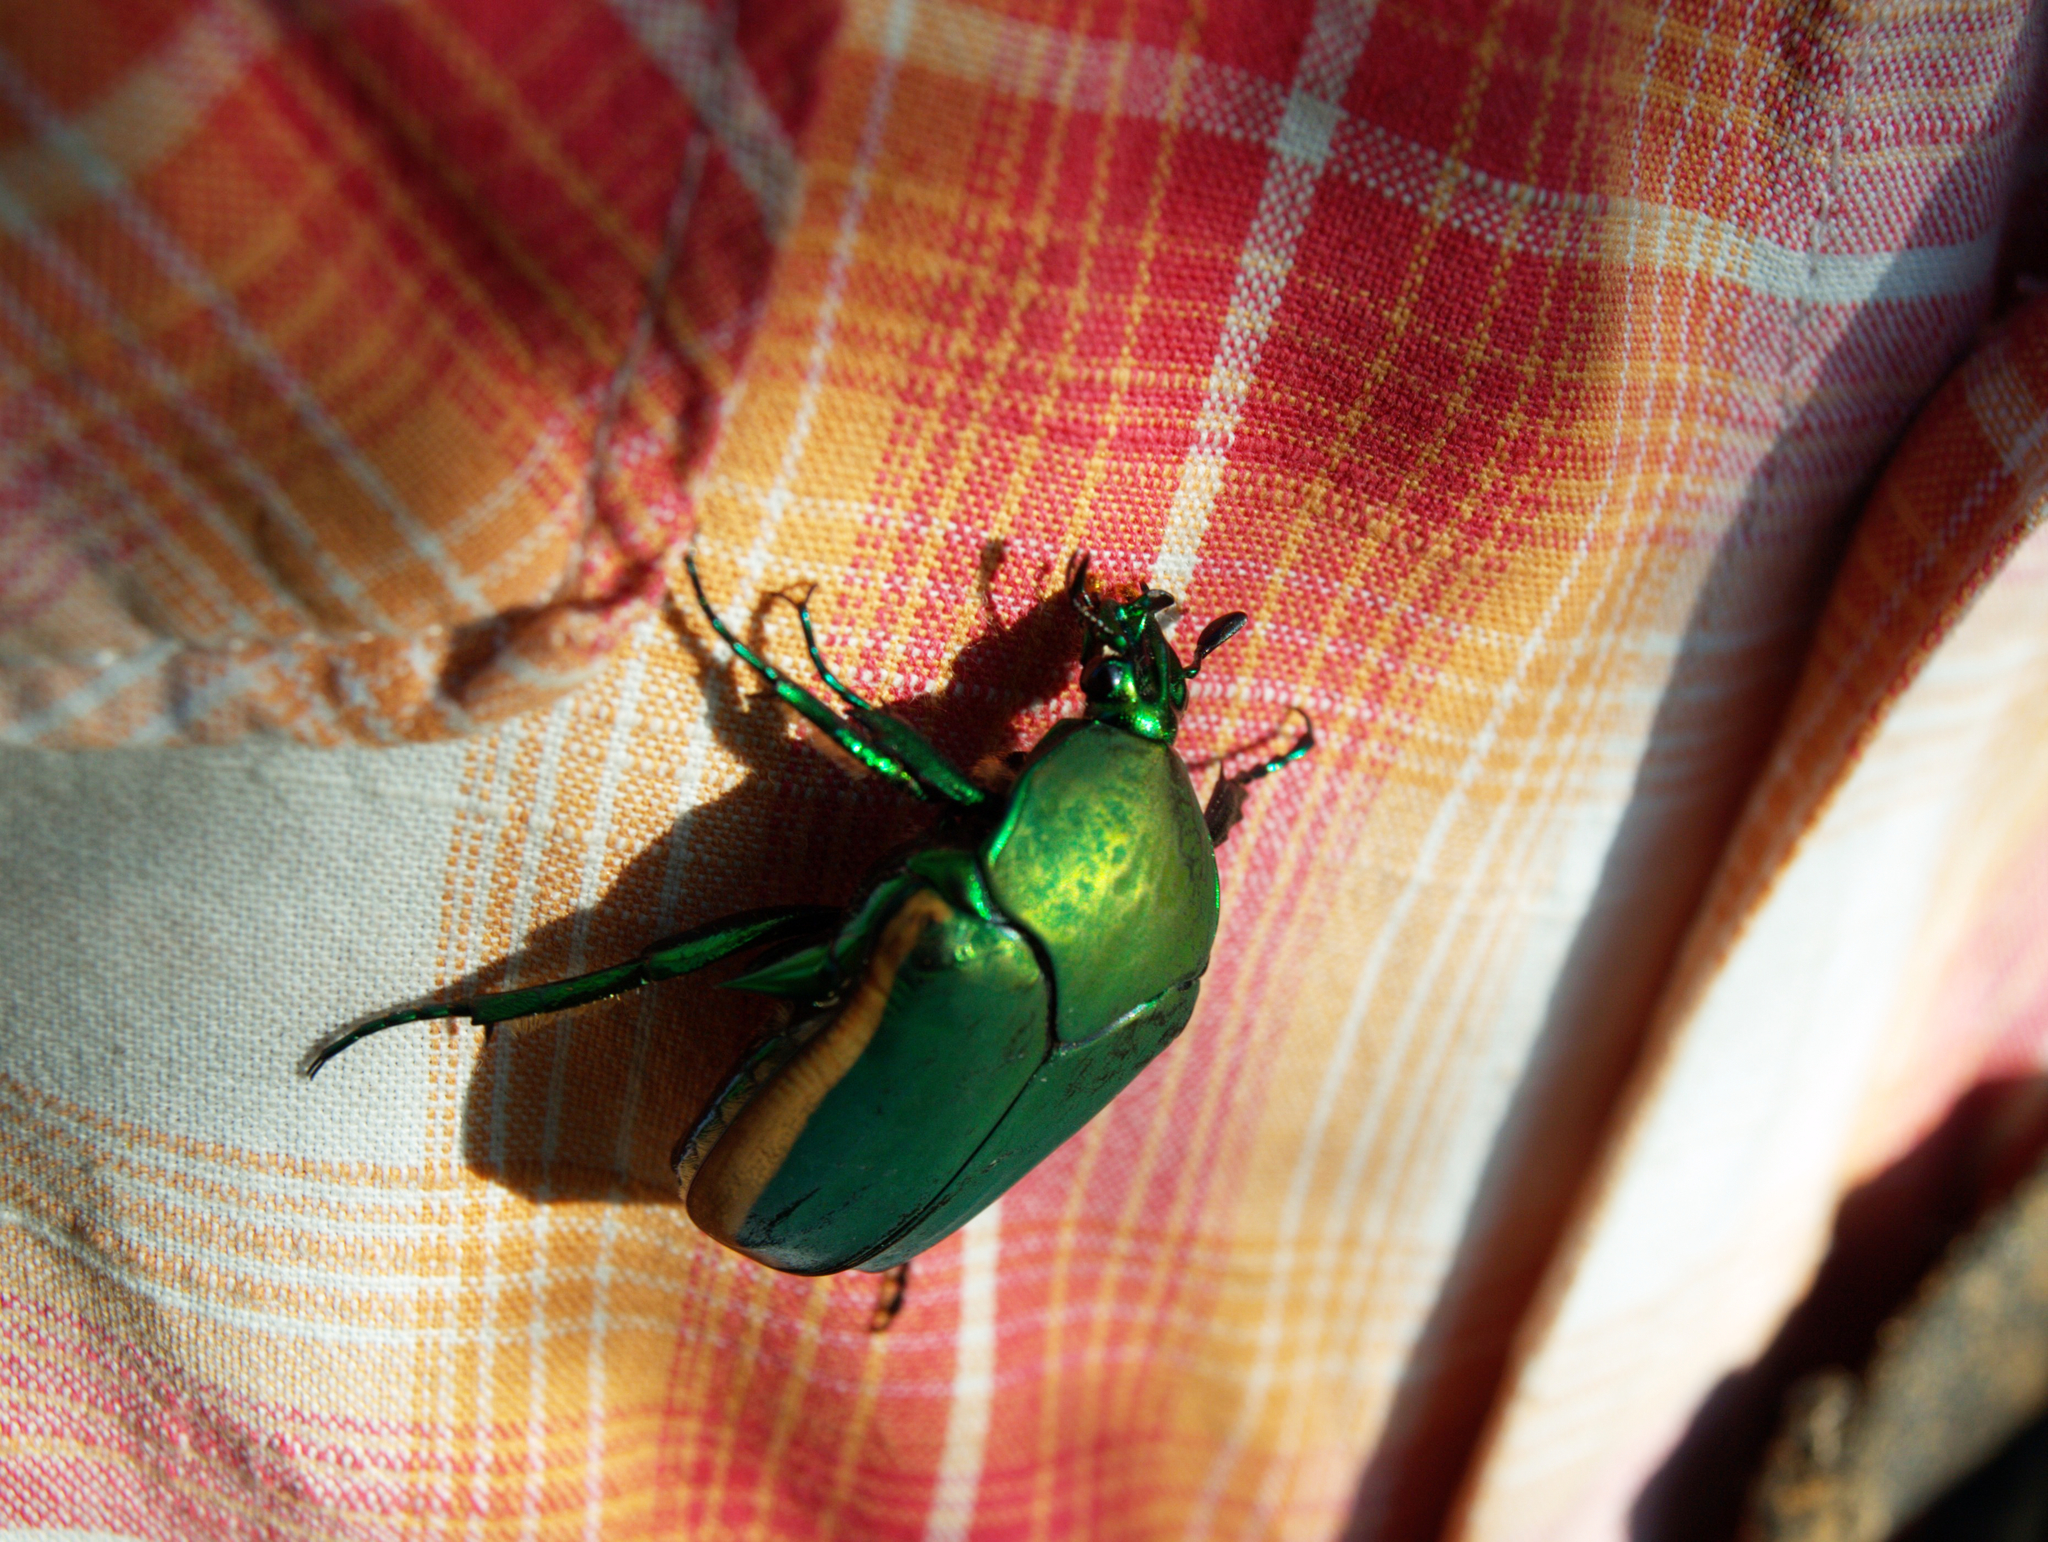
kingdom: Animalia
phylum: Arthropoda
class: Insecta
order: Coleoptera
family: Scarabaeidae
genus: Cotinis
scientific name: Cotinis mutabilis
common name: Figeater beetle
